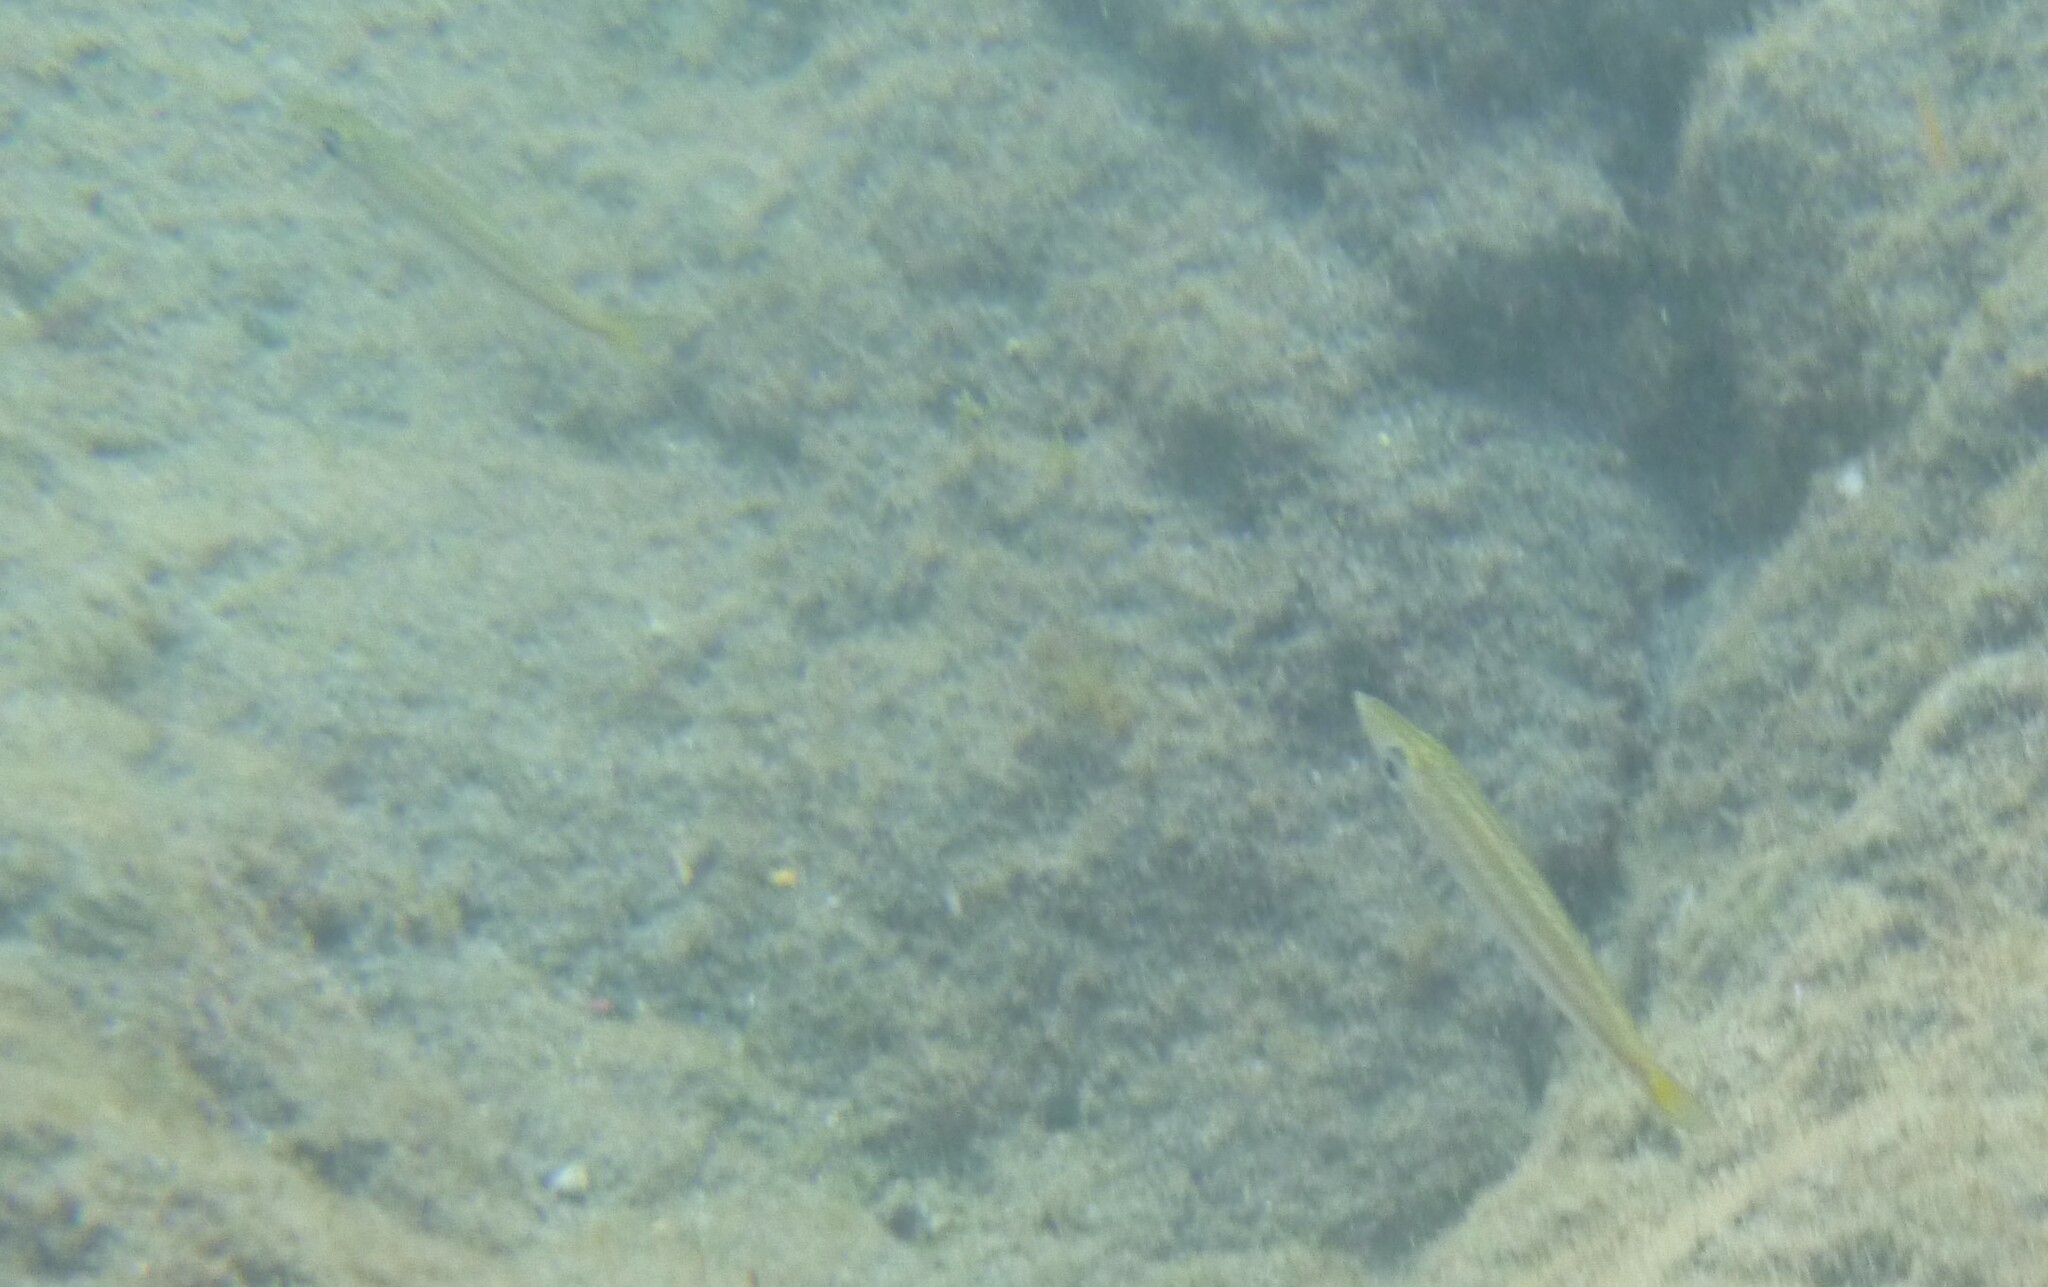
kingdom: Animalia
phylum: Chordata
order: Perciformes
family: Sphyraenidae
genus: Sphyraena
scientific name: Sphyraena viridensis
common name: Yellowmouth barracuda
